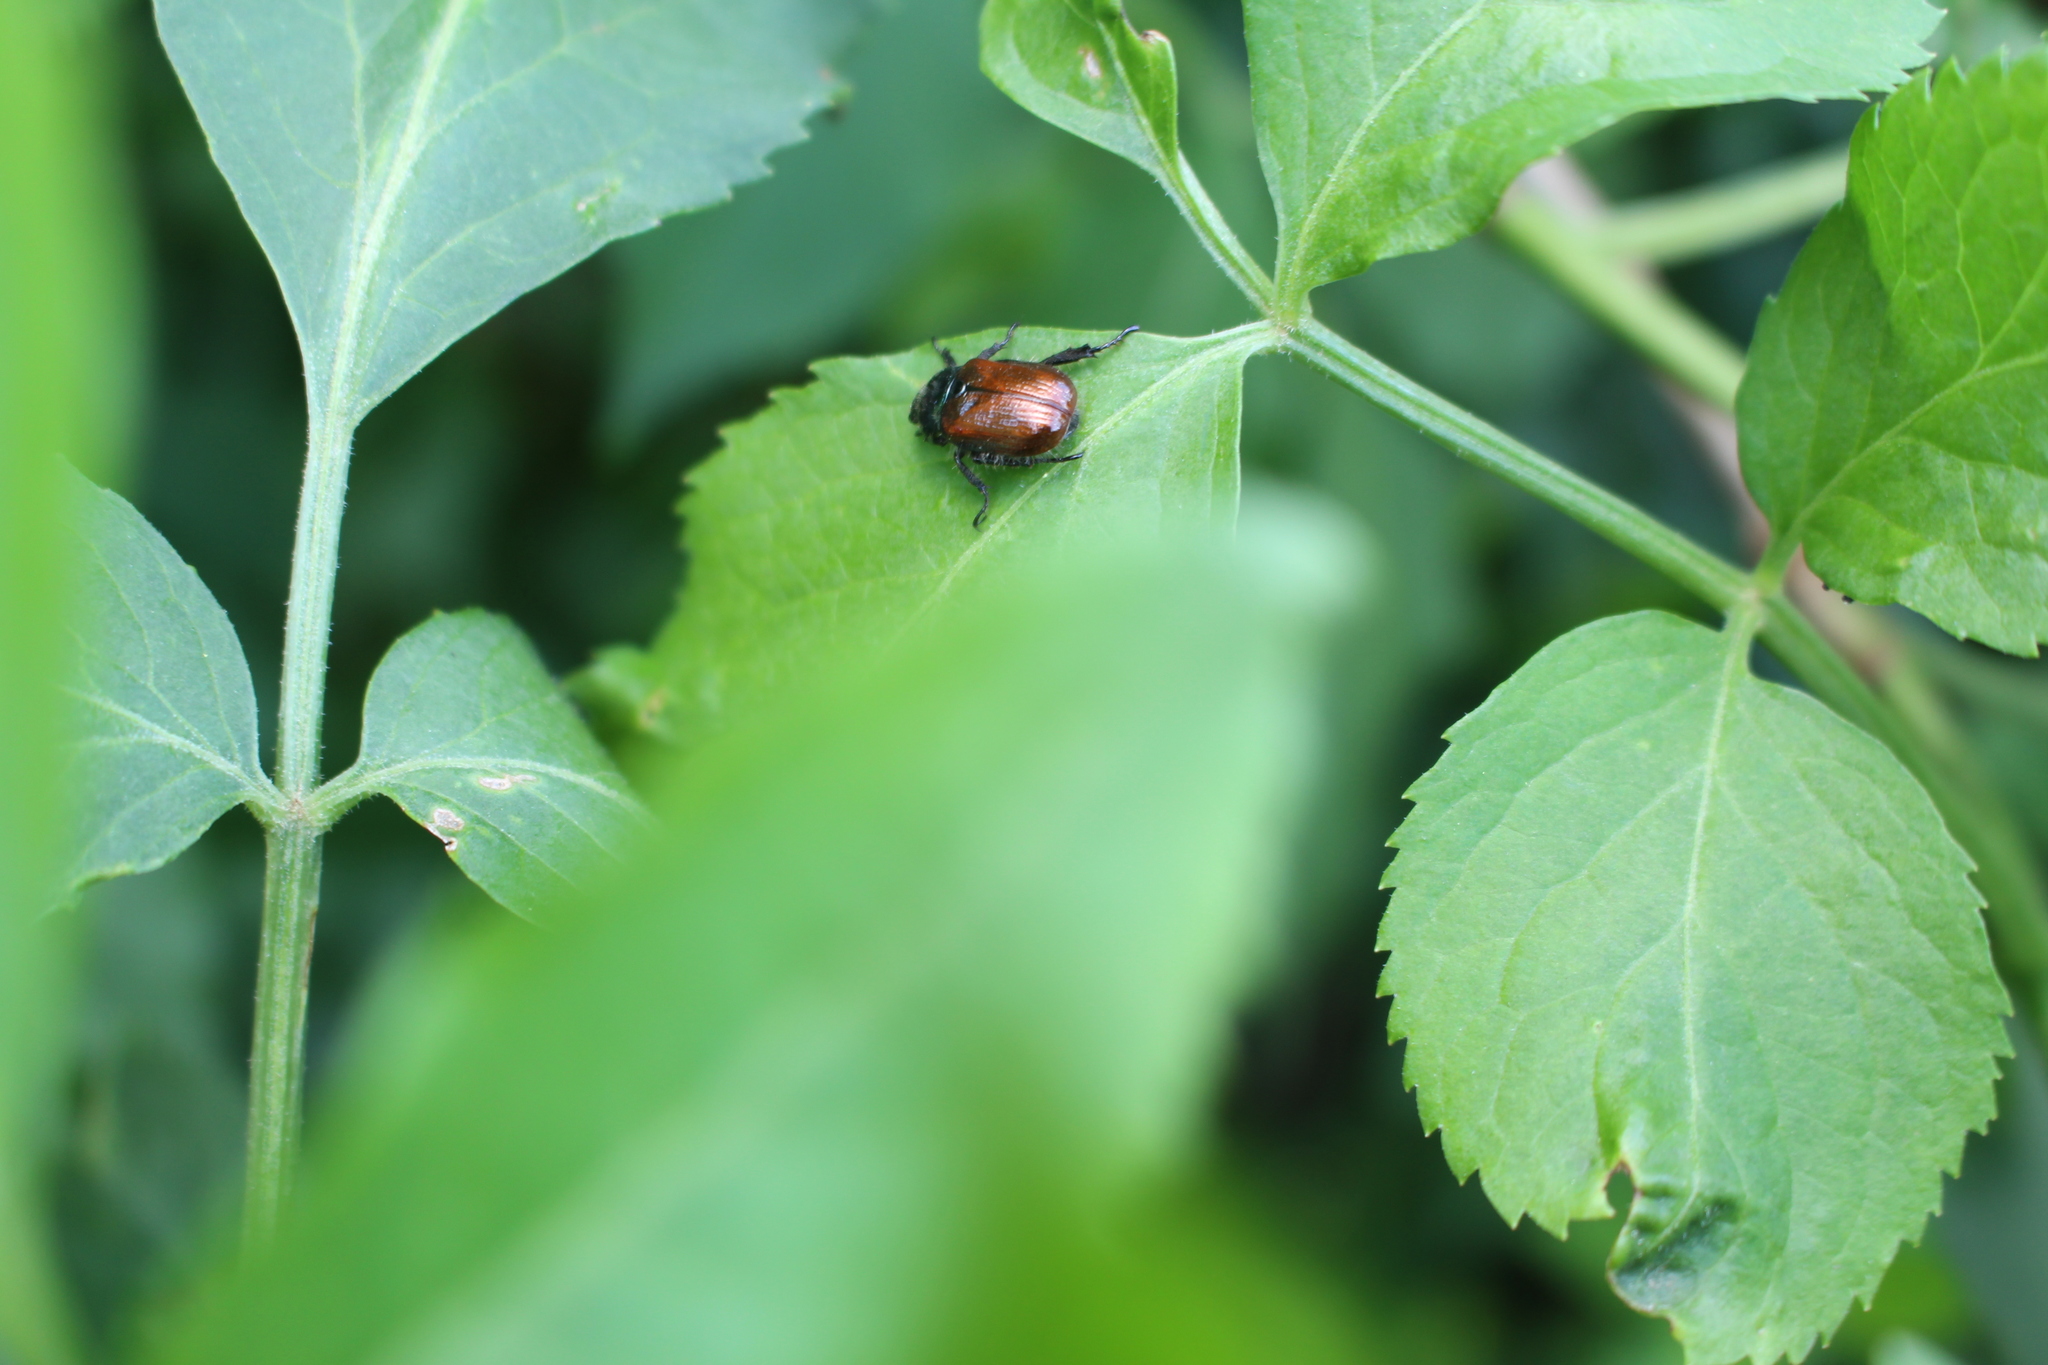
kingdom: Animalia
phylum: Arthropoda
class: Insecta
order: Coleoptera
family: Scarabaeidae
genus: Phyllopertha
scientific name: Phyllopertha horticola
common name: Garden chafer
